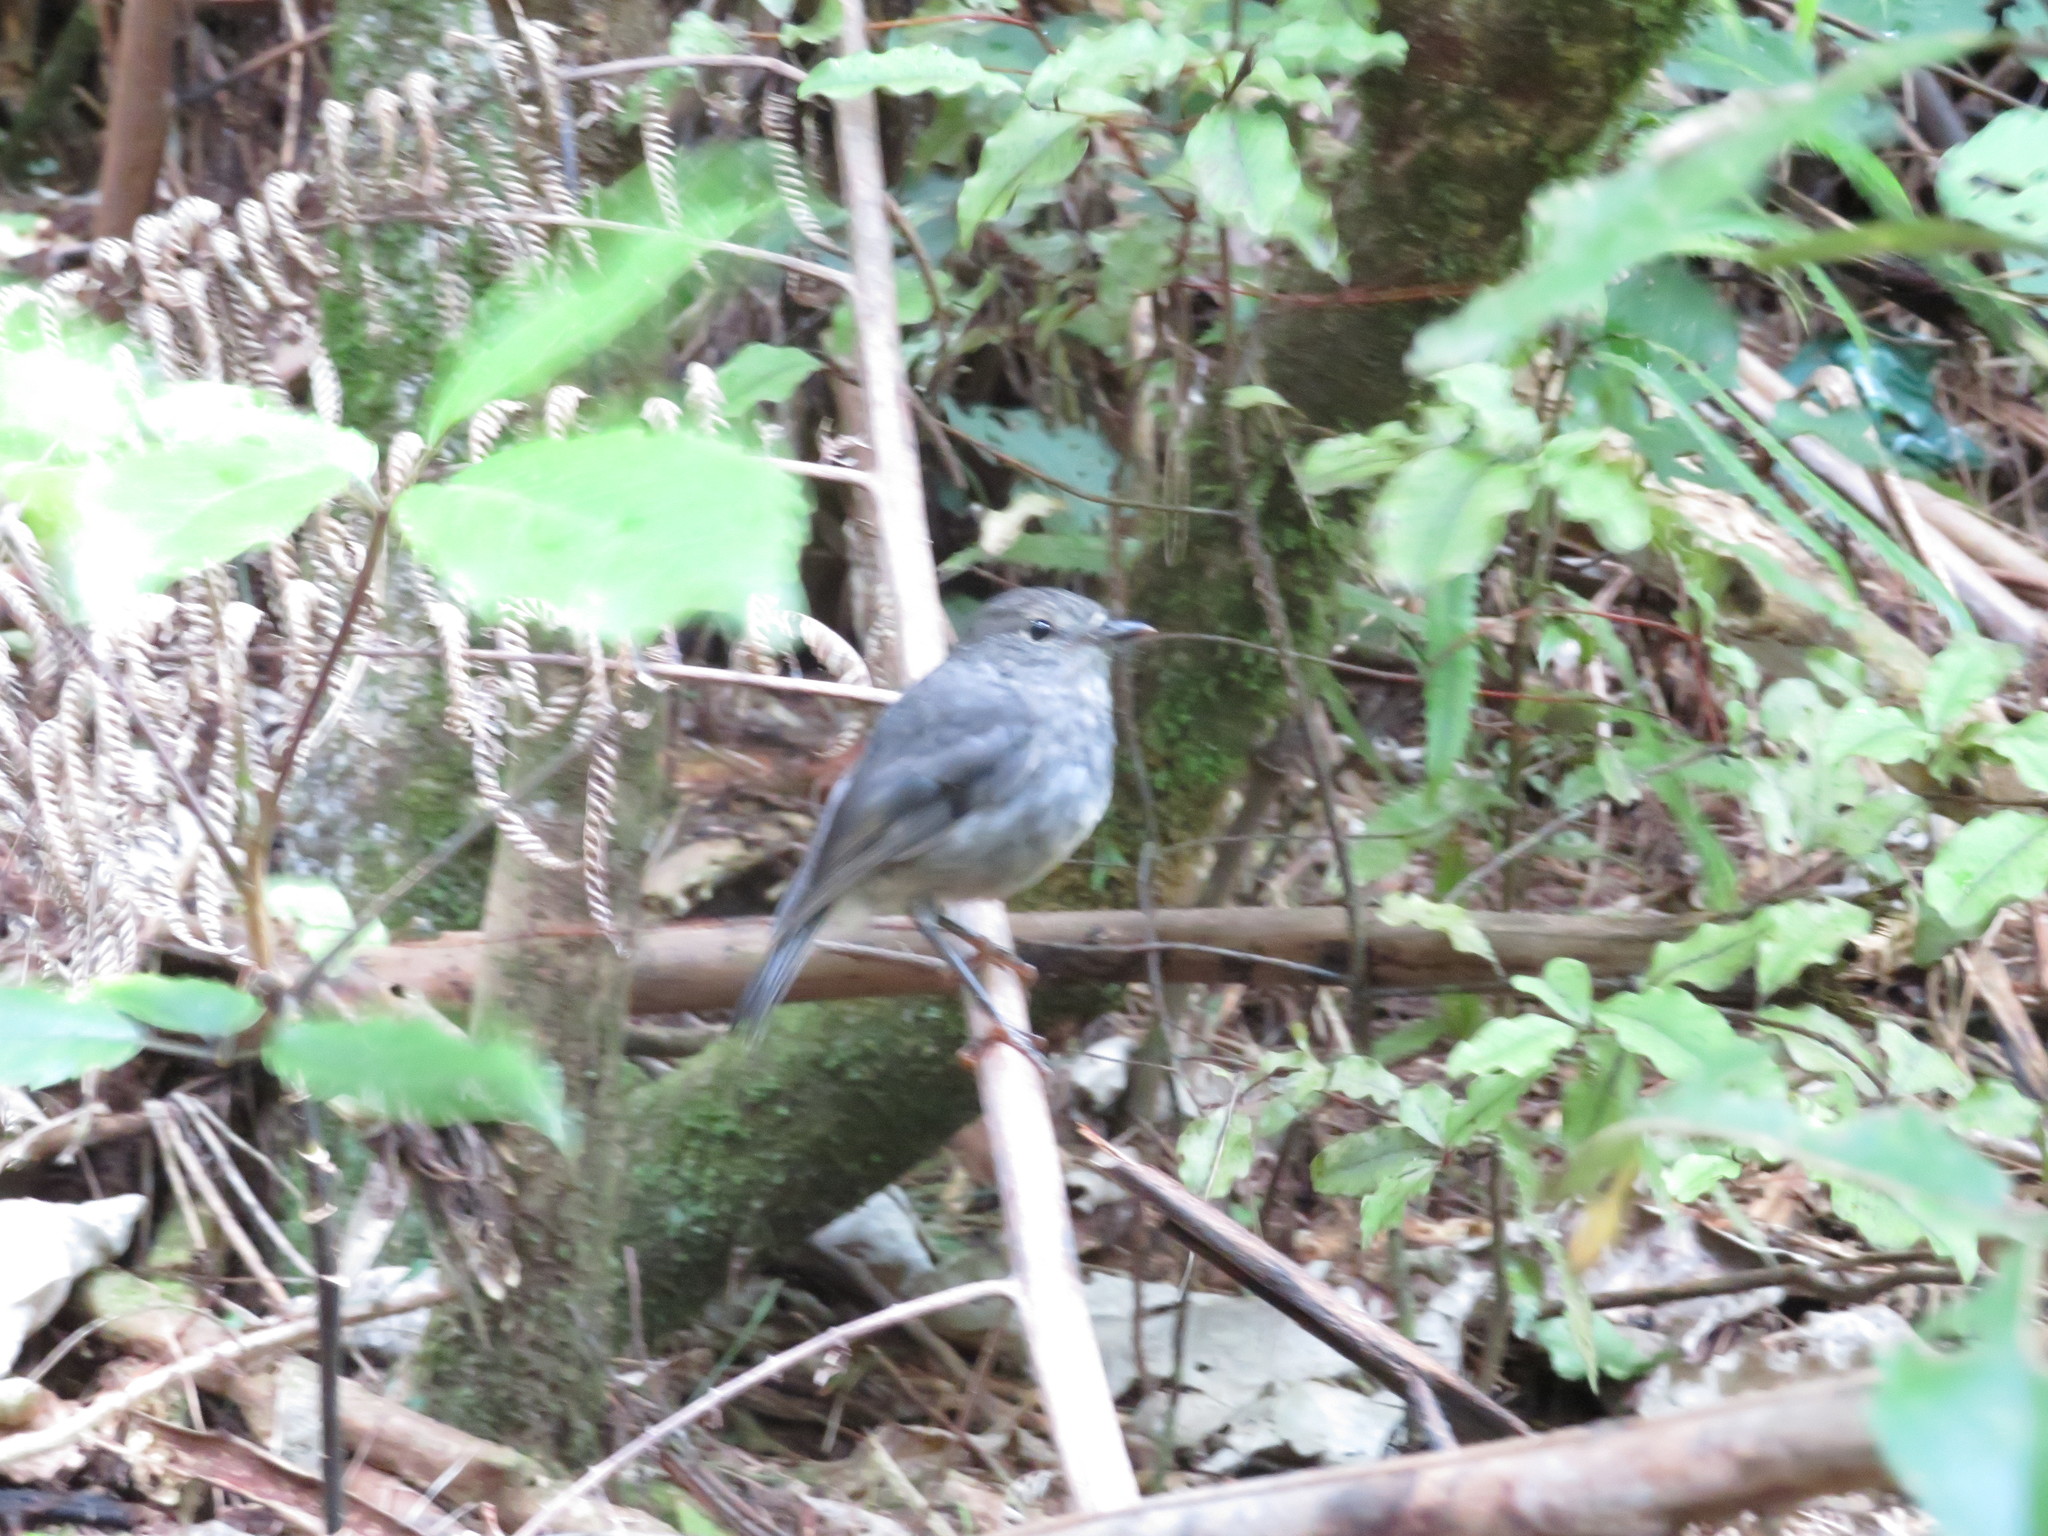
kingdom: Animalia
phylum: Chordata
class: Aves
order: Passeriformes
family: Petroicidae
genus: Petroica
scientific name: Petroica australis
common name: New zealand robin
